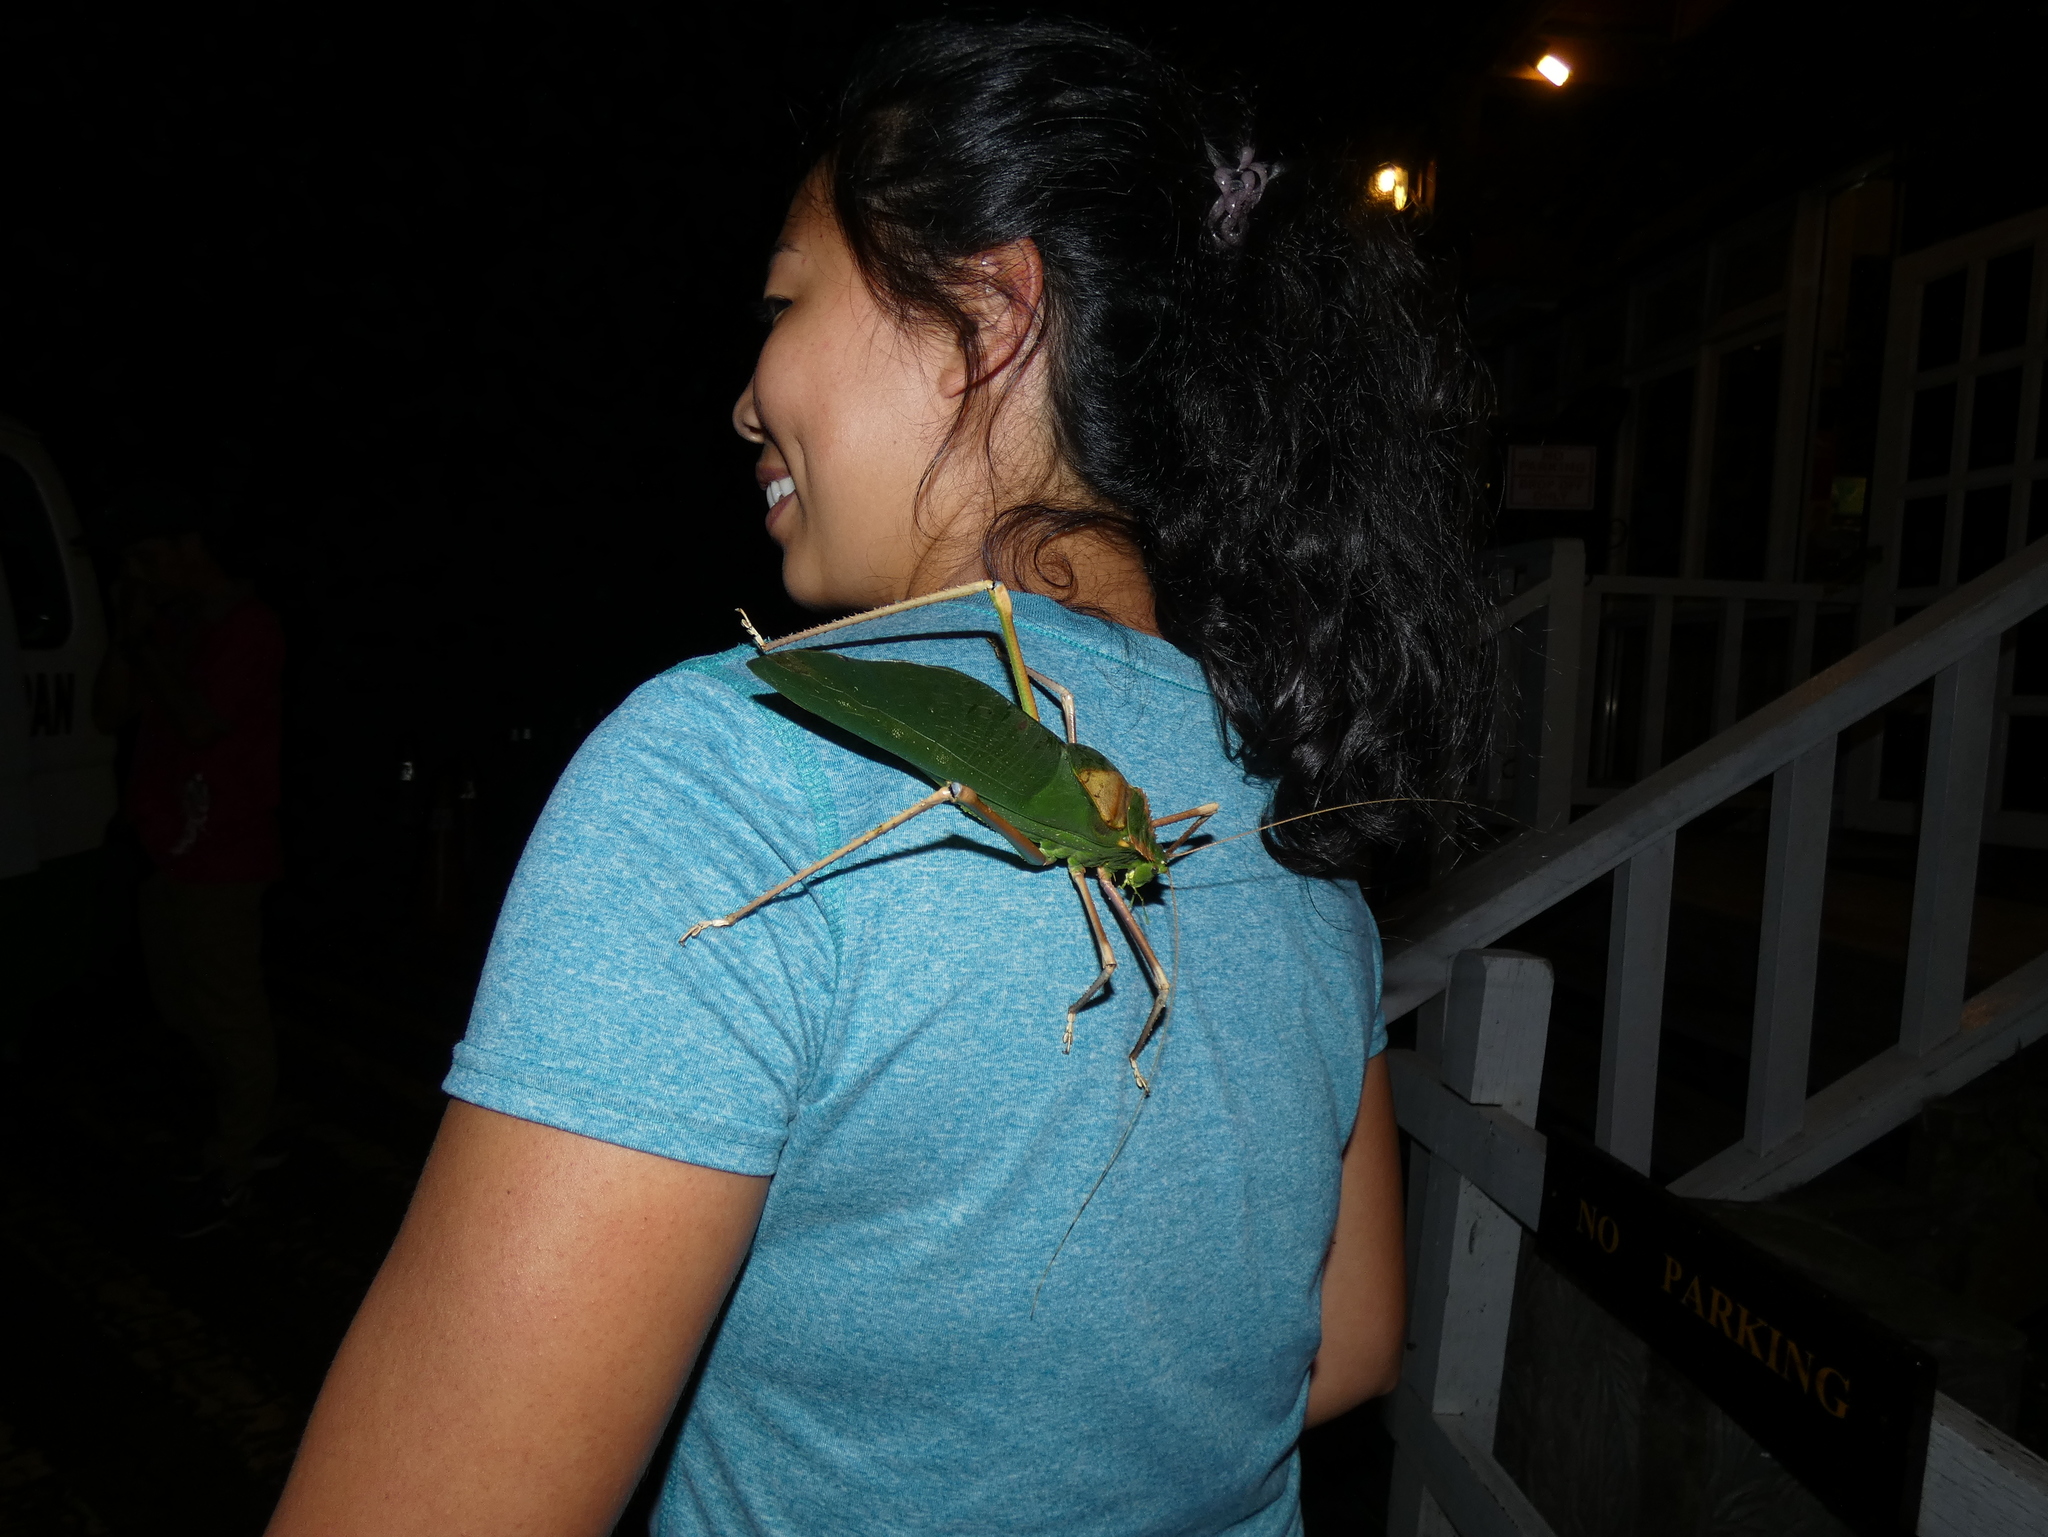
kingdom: Animalia
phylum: Arthropoda
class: Insecta
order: Orthoptera
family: Tettigoniidae
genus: Arachnacris
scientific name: Arachnacris tenuipes
